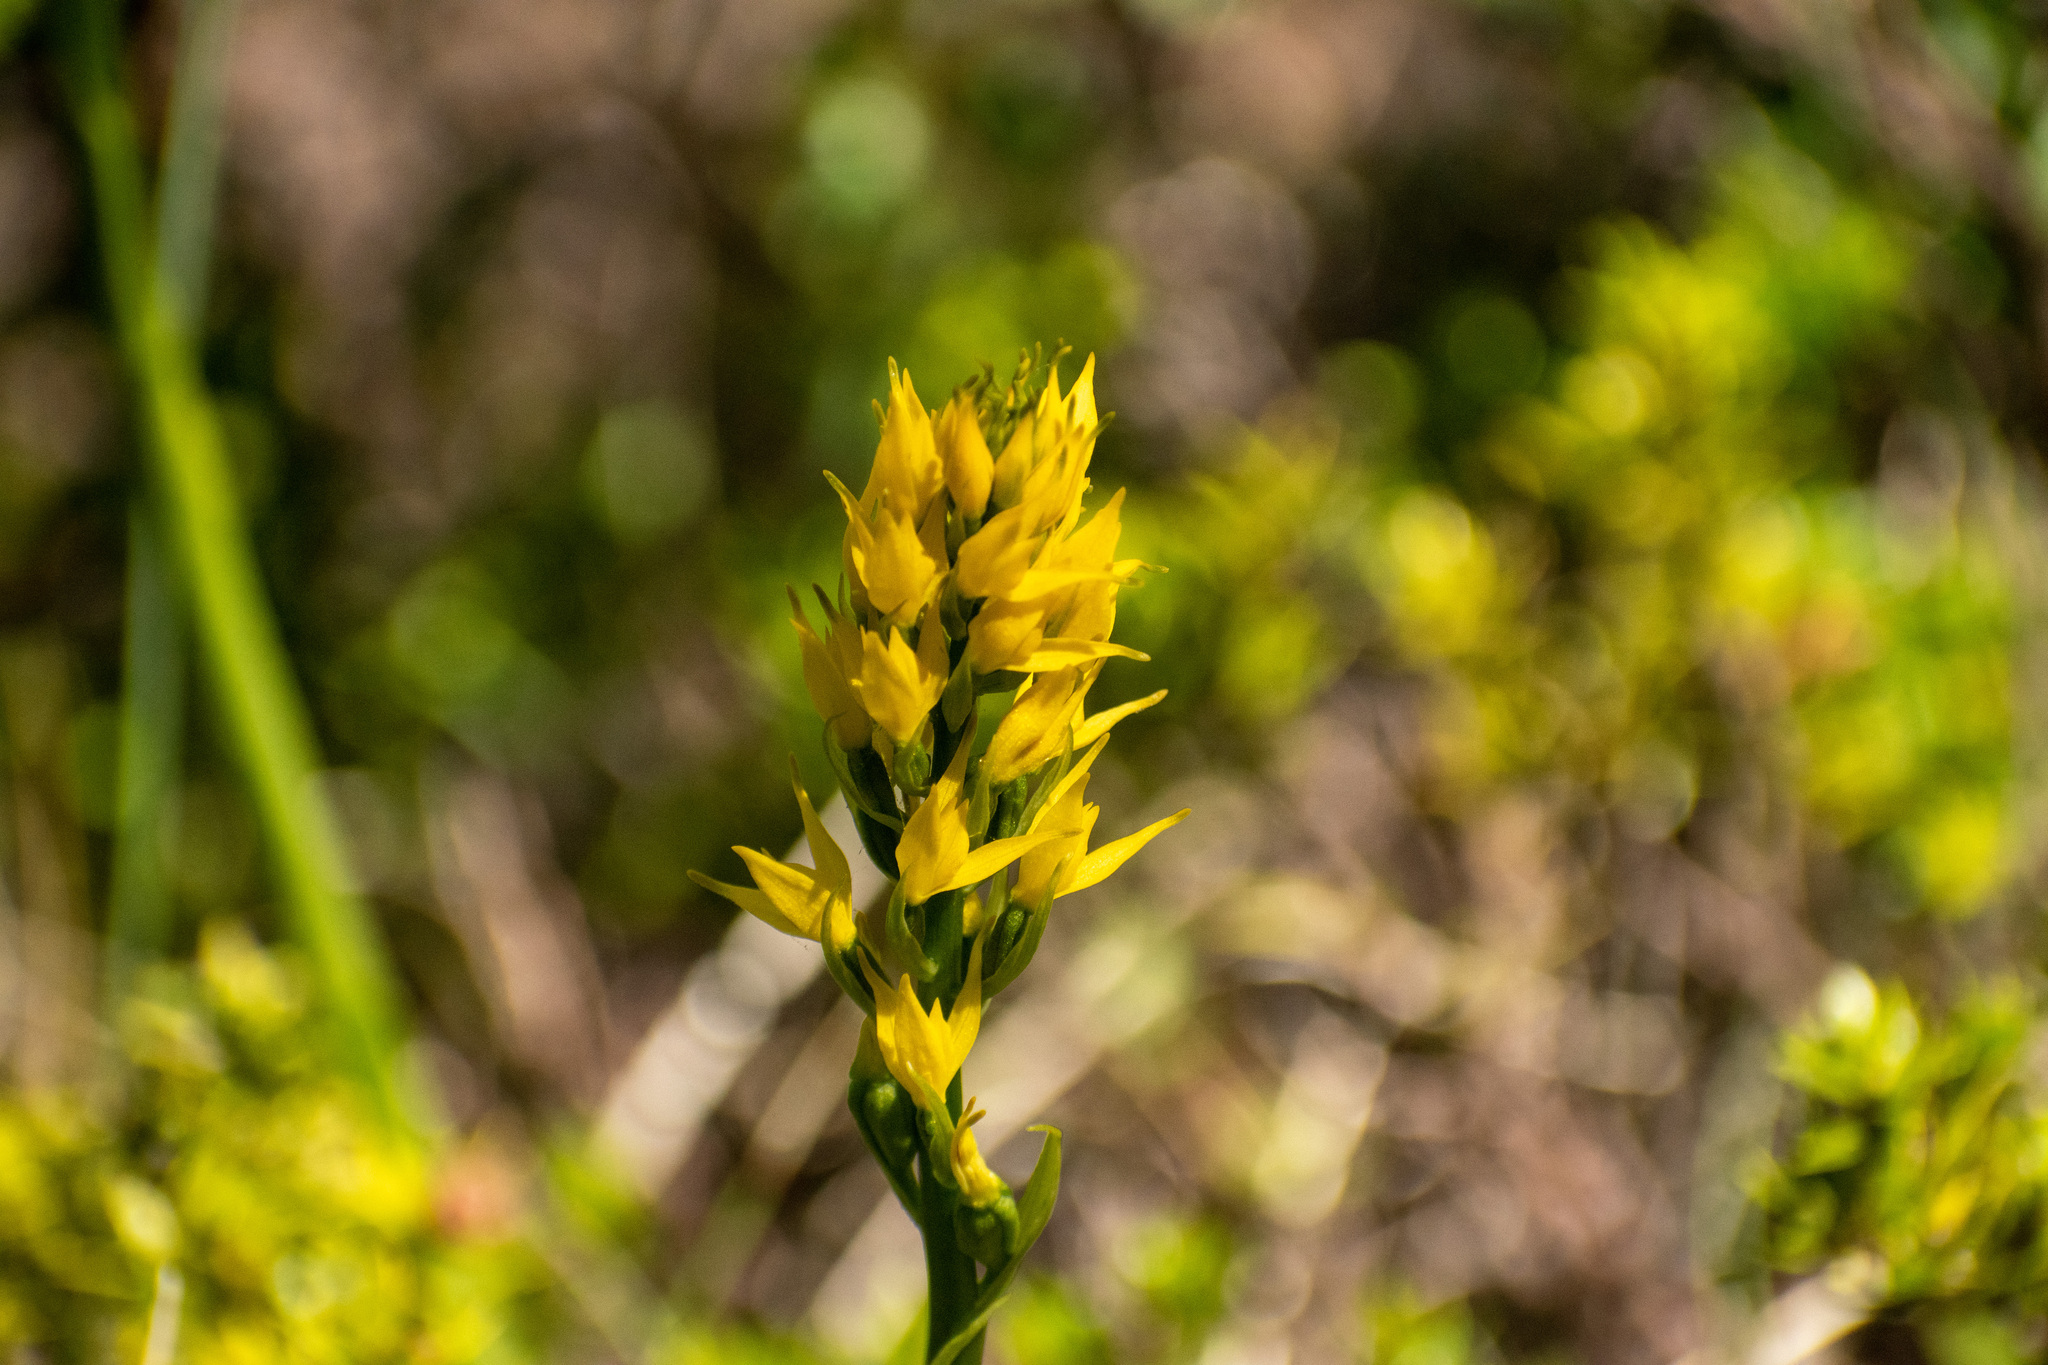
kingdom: Plantae
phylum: Tracheophyta
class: Liliopsida
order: Asparagales
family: Orchidaceae
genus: Gavilea
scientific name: Gavilea lutea
